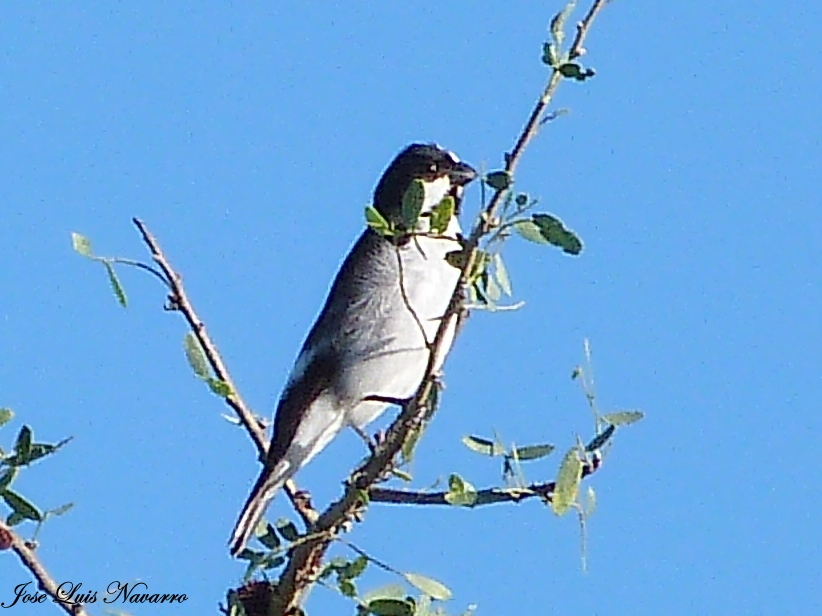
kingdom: Animalia
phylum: Chordata
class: Aves
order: Passeriformes
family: Thraupidae
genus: Sporophila
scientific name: Sporophila lineola
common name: Lined seedeater
